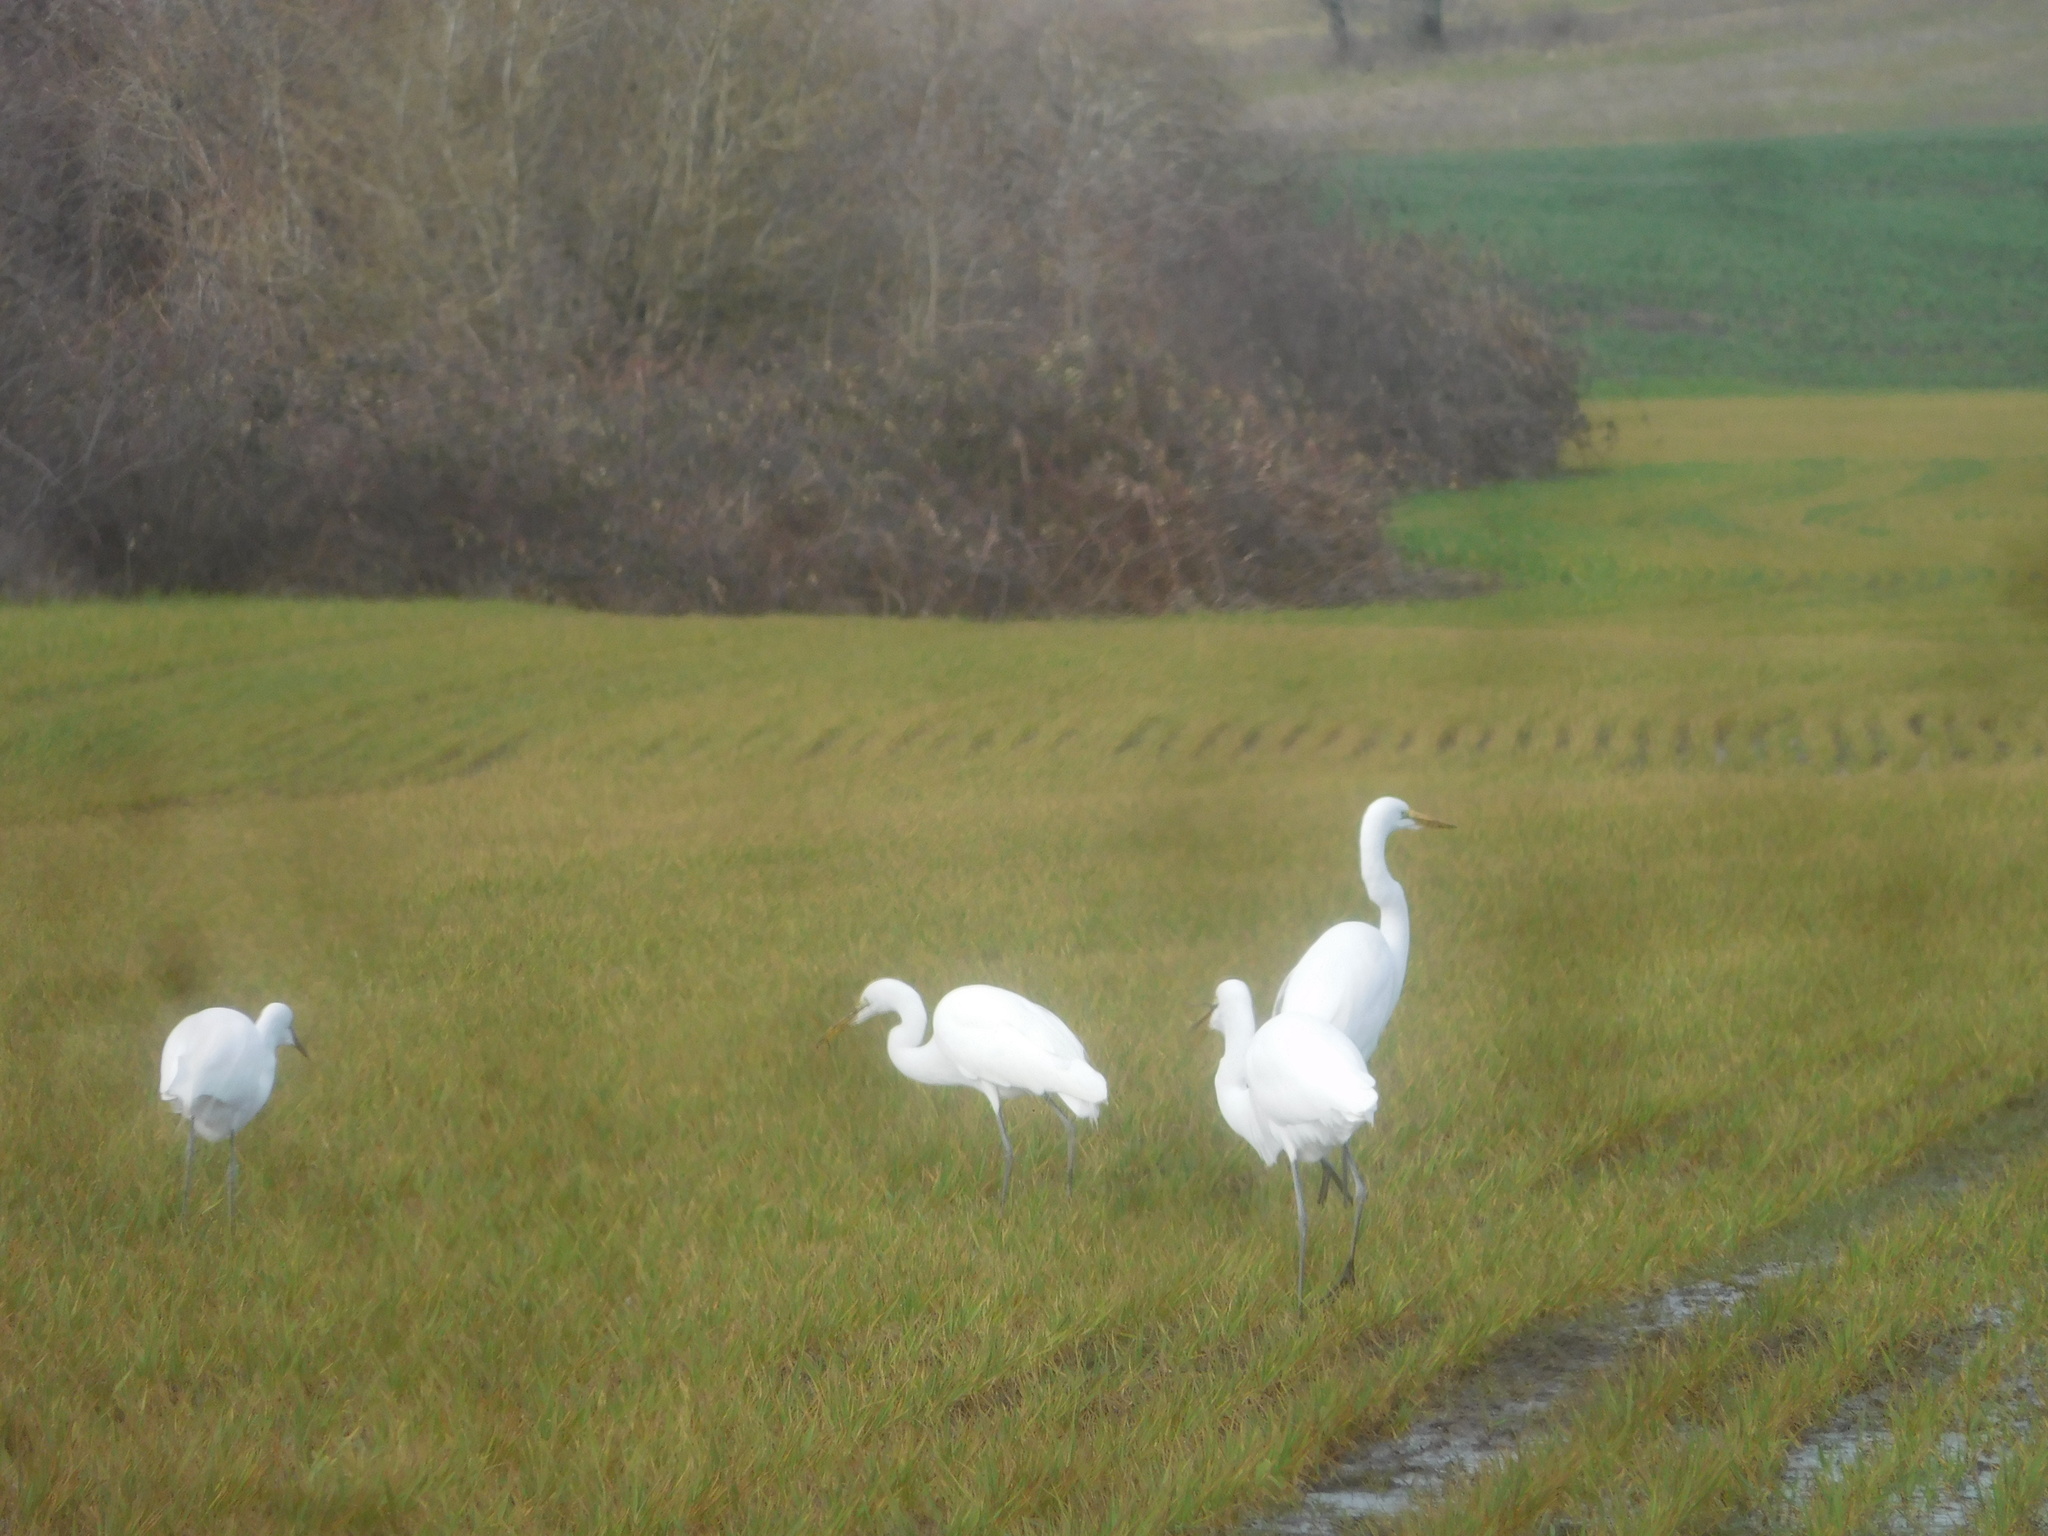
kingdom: Animalia
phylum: Chordata
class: Aves
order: Pelecaniformes
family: Ardeidae
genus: Ardea
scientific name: Ardea alba
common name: Great egret
